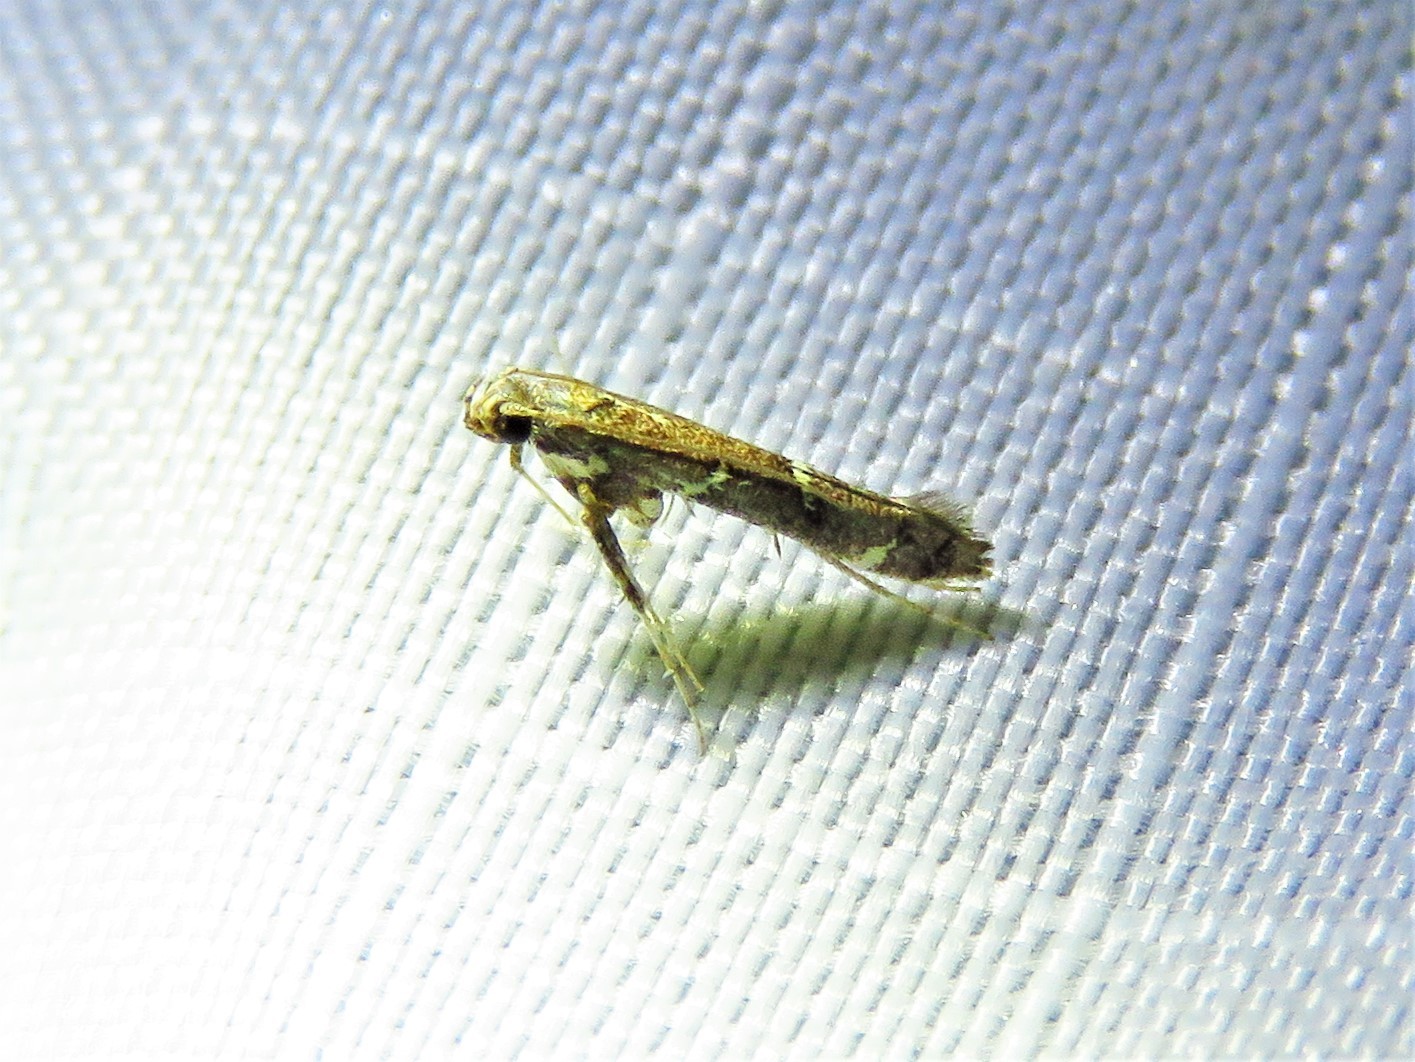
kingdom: Animalia
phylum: Arthropoda
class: Insecta
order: Lepidoptera
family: Gracillariidae
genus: Caloptilia
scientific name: Caloptilia triadicae
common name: Tallow leaf roller
